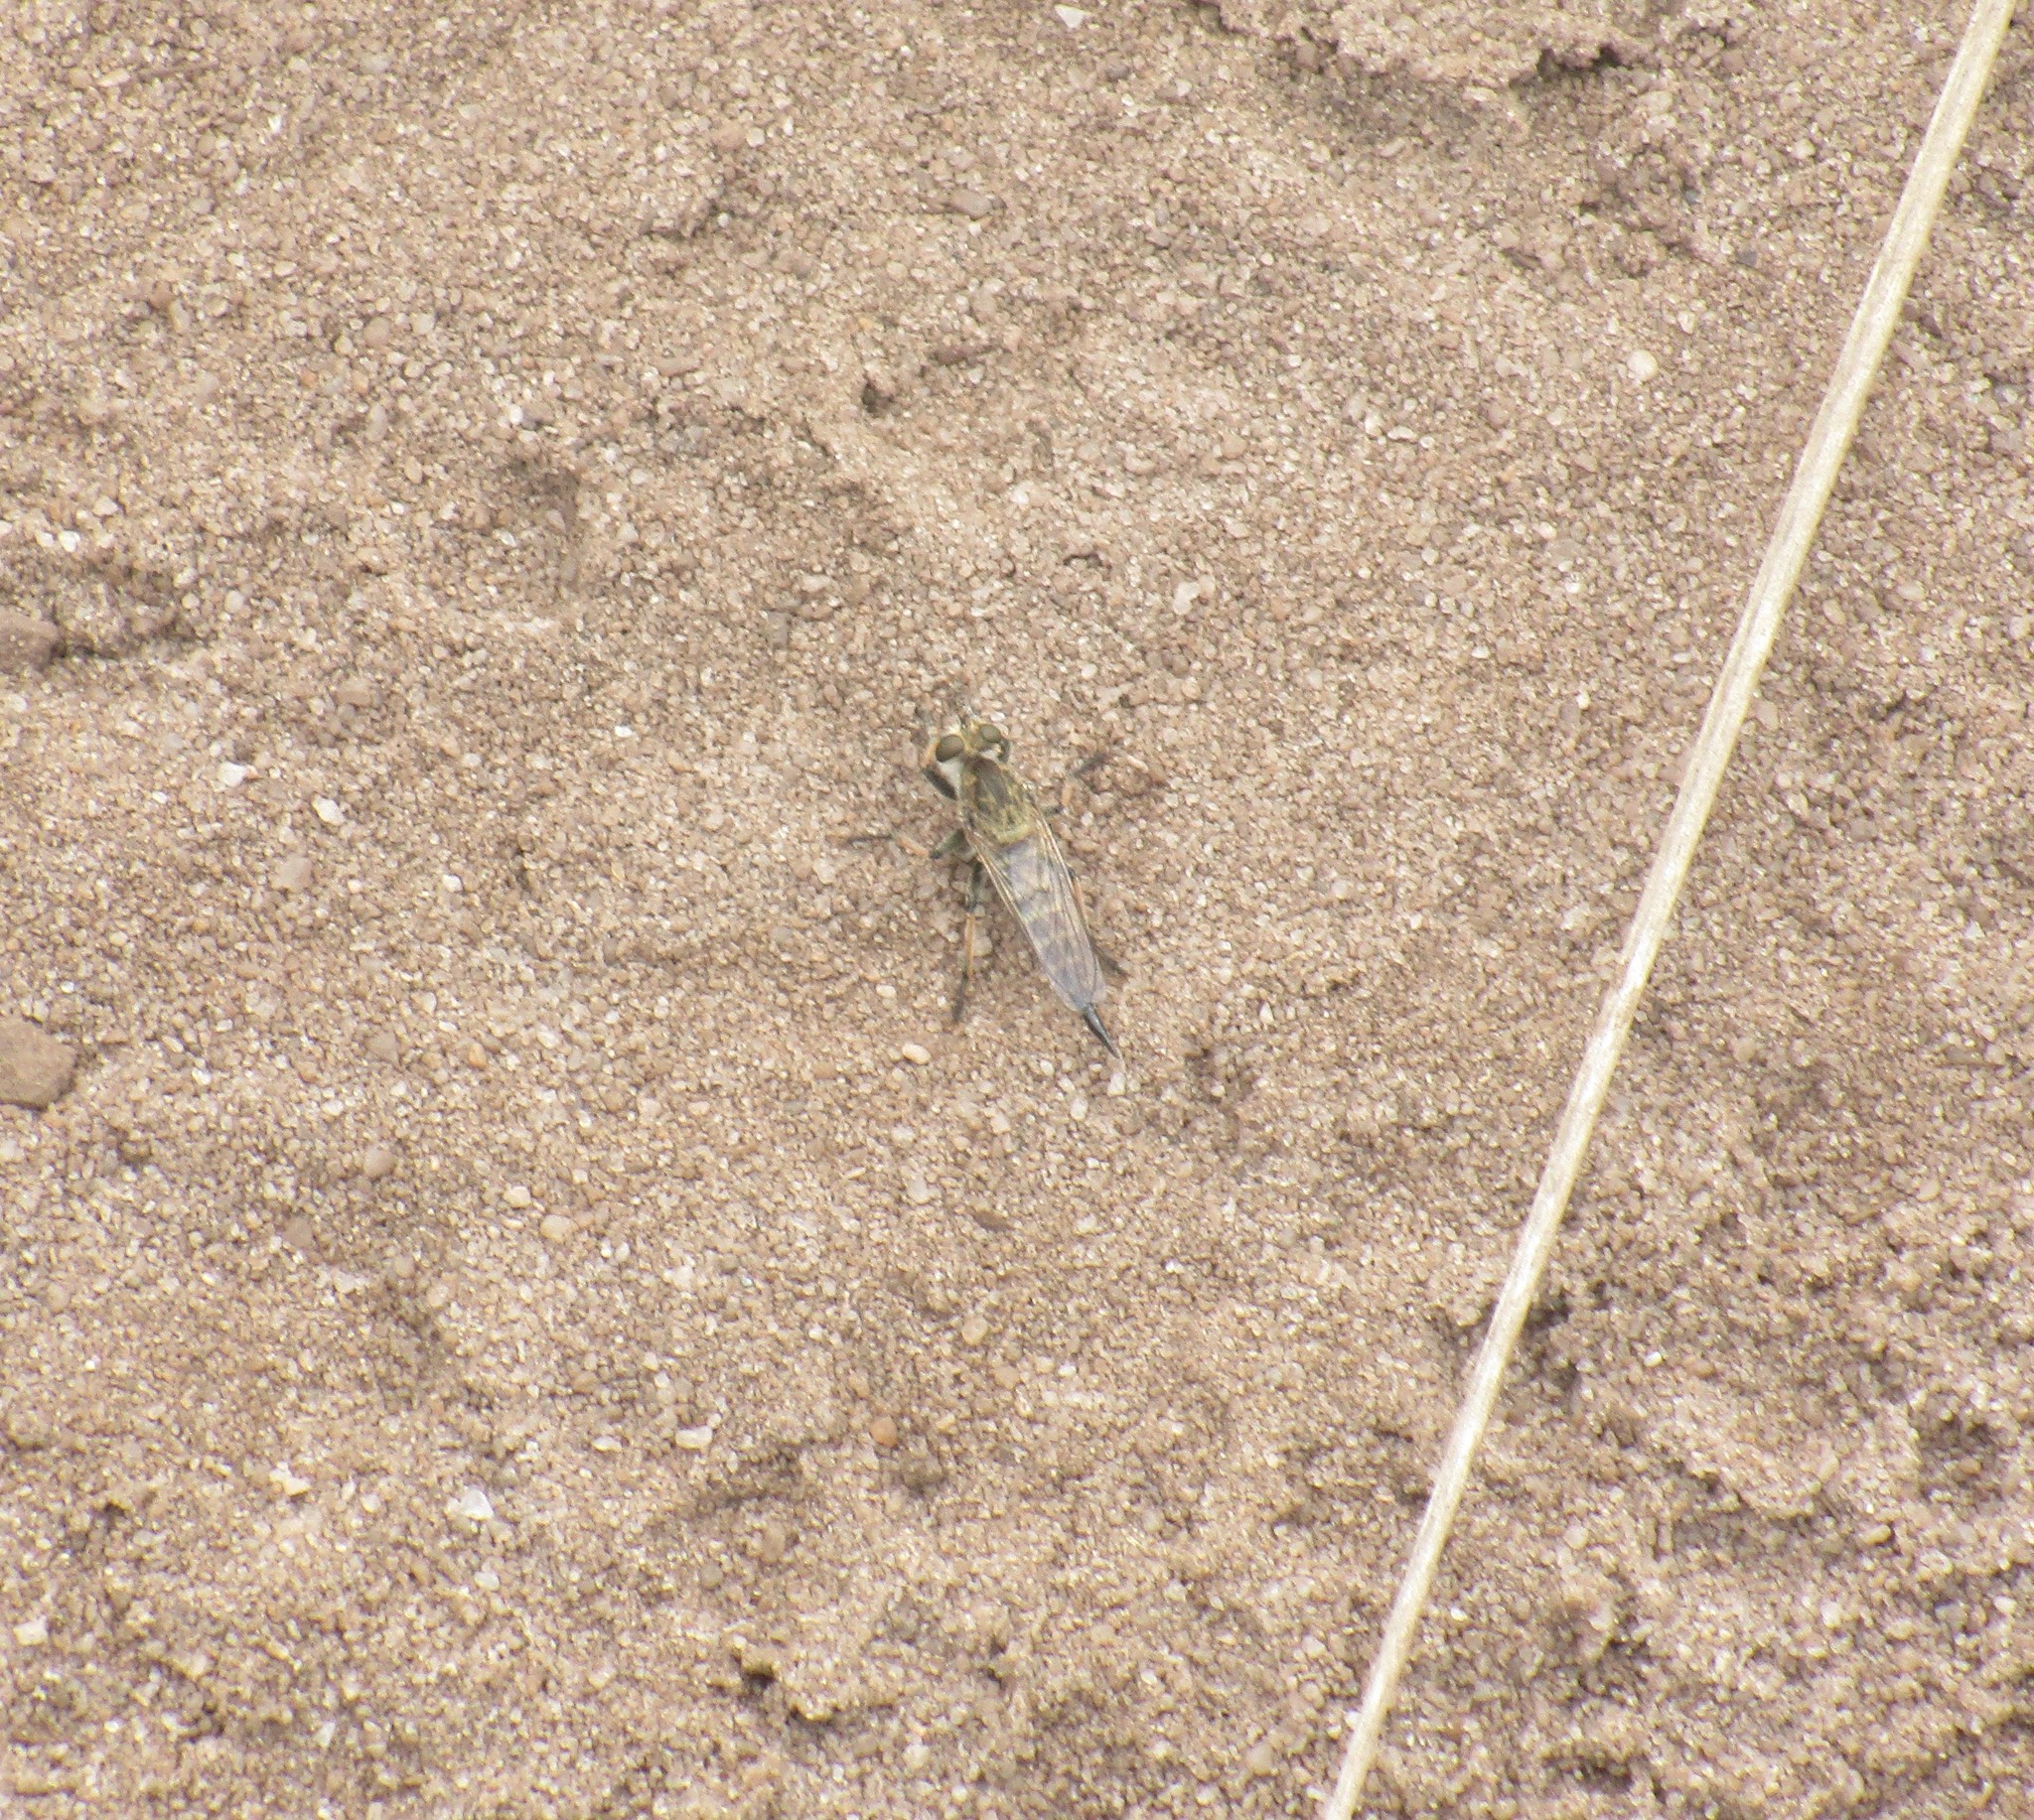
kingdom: Animalia
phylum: Arthropoda
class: Insecta
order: Diptera
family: Asilidae
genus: Efferia
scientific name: Efferia albibarbis
